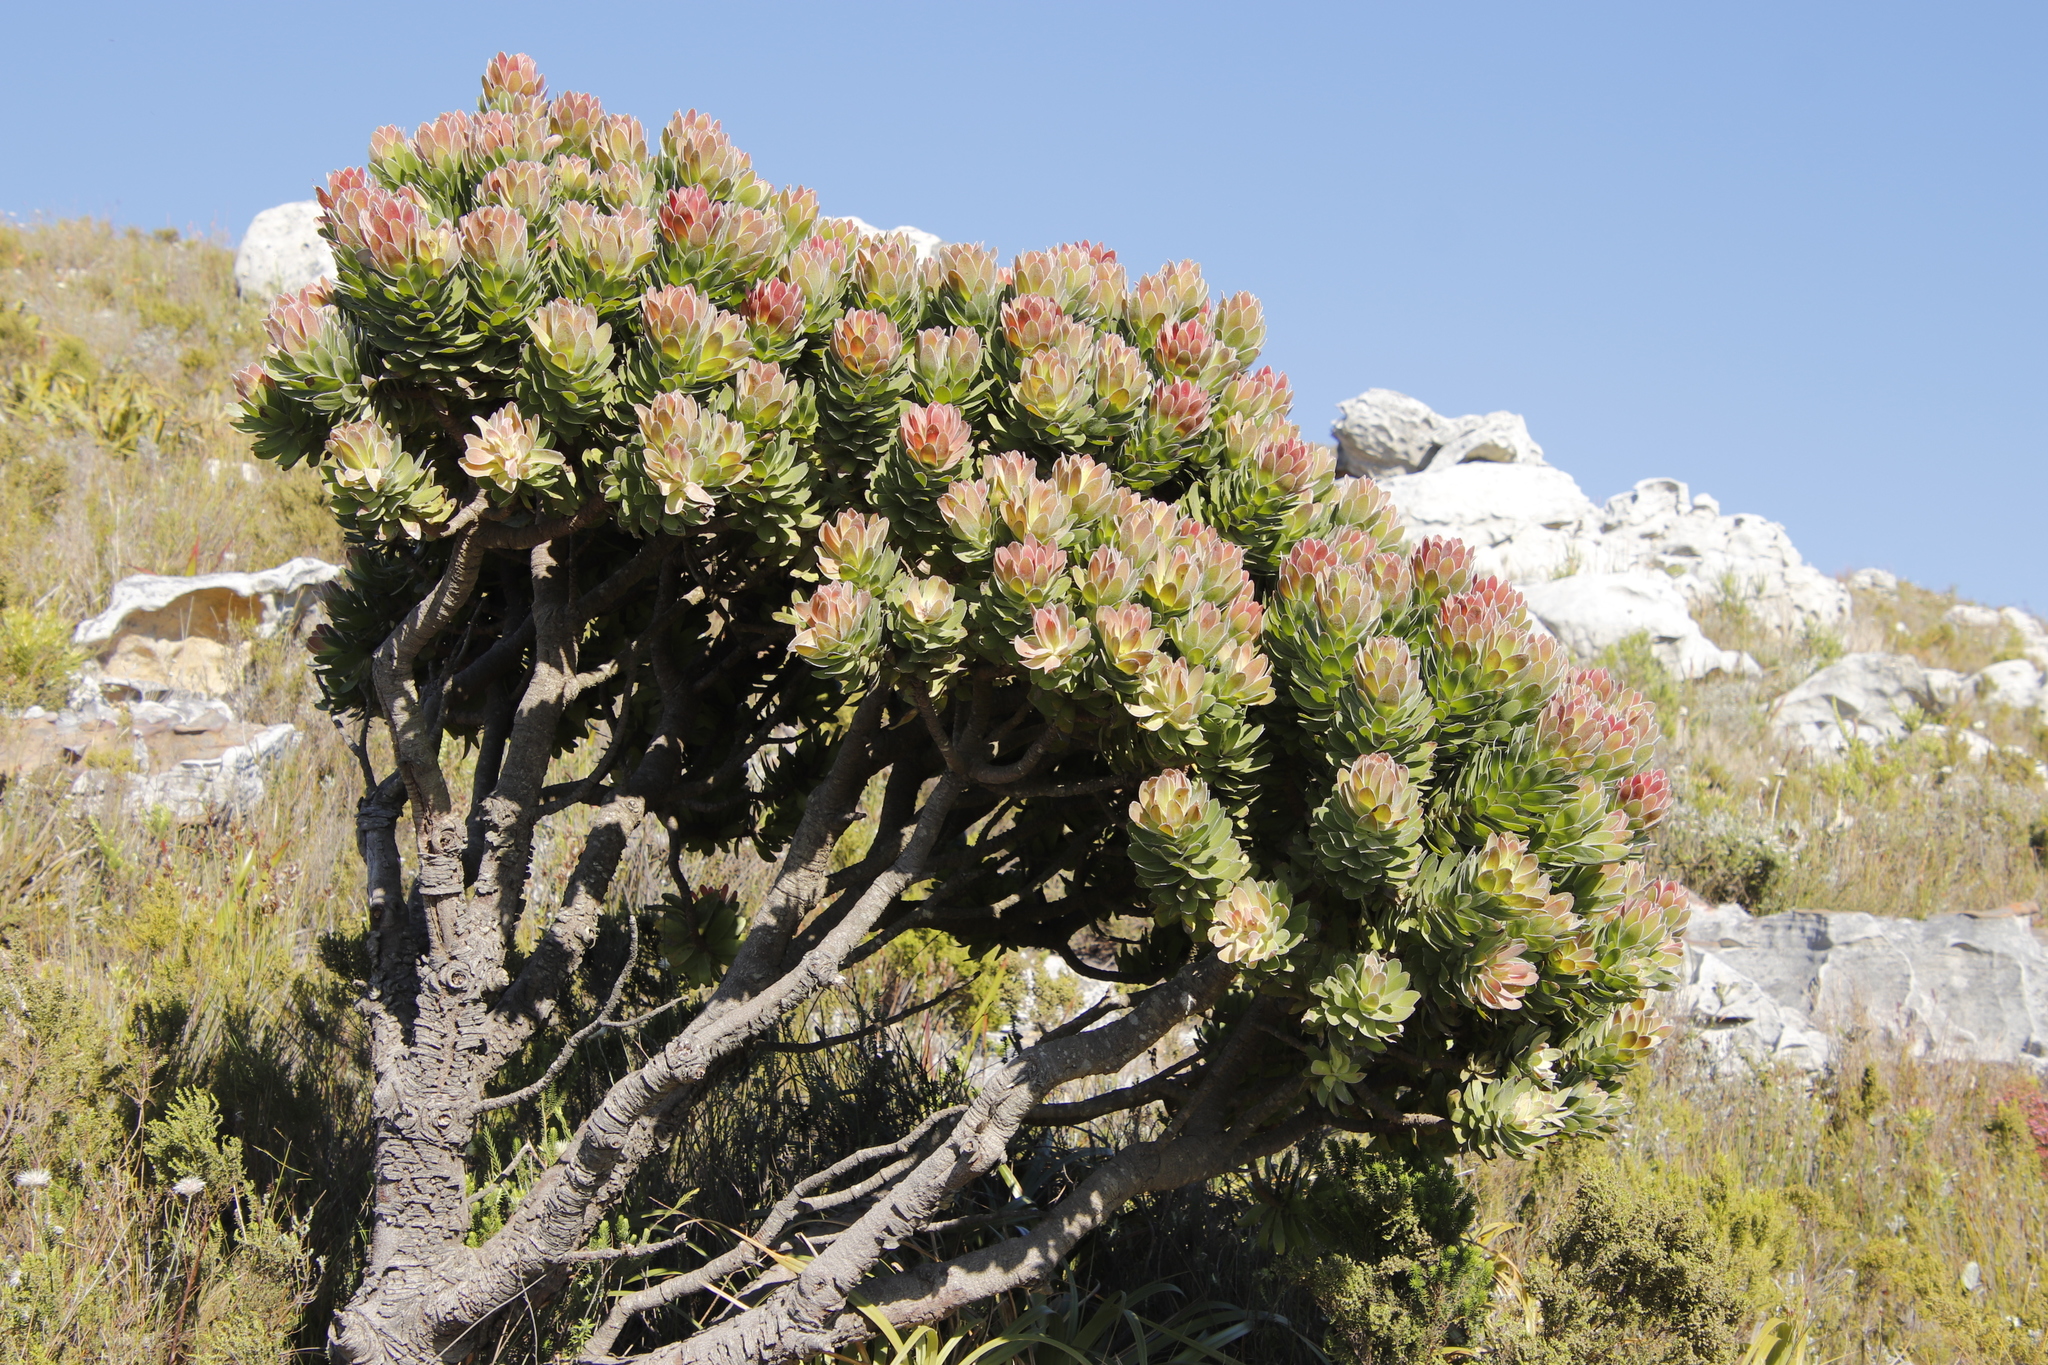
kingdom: Plantae
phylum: Tracheophyta
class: Magnoliopsida
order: Proteales
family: Proteaceae
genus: Mimetes
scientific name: Mimetes fimbriifolius
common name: Fringed bottlebrush
